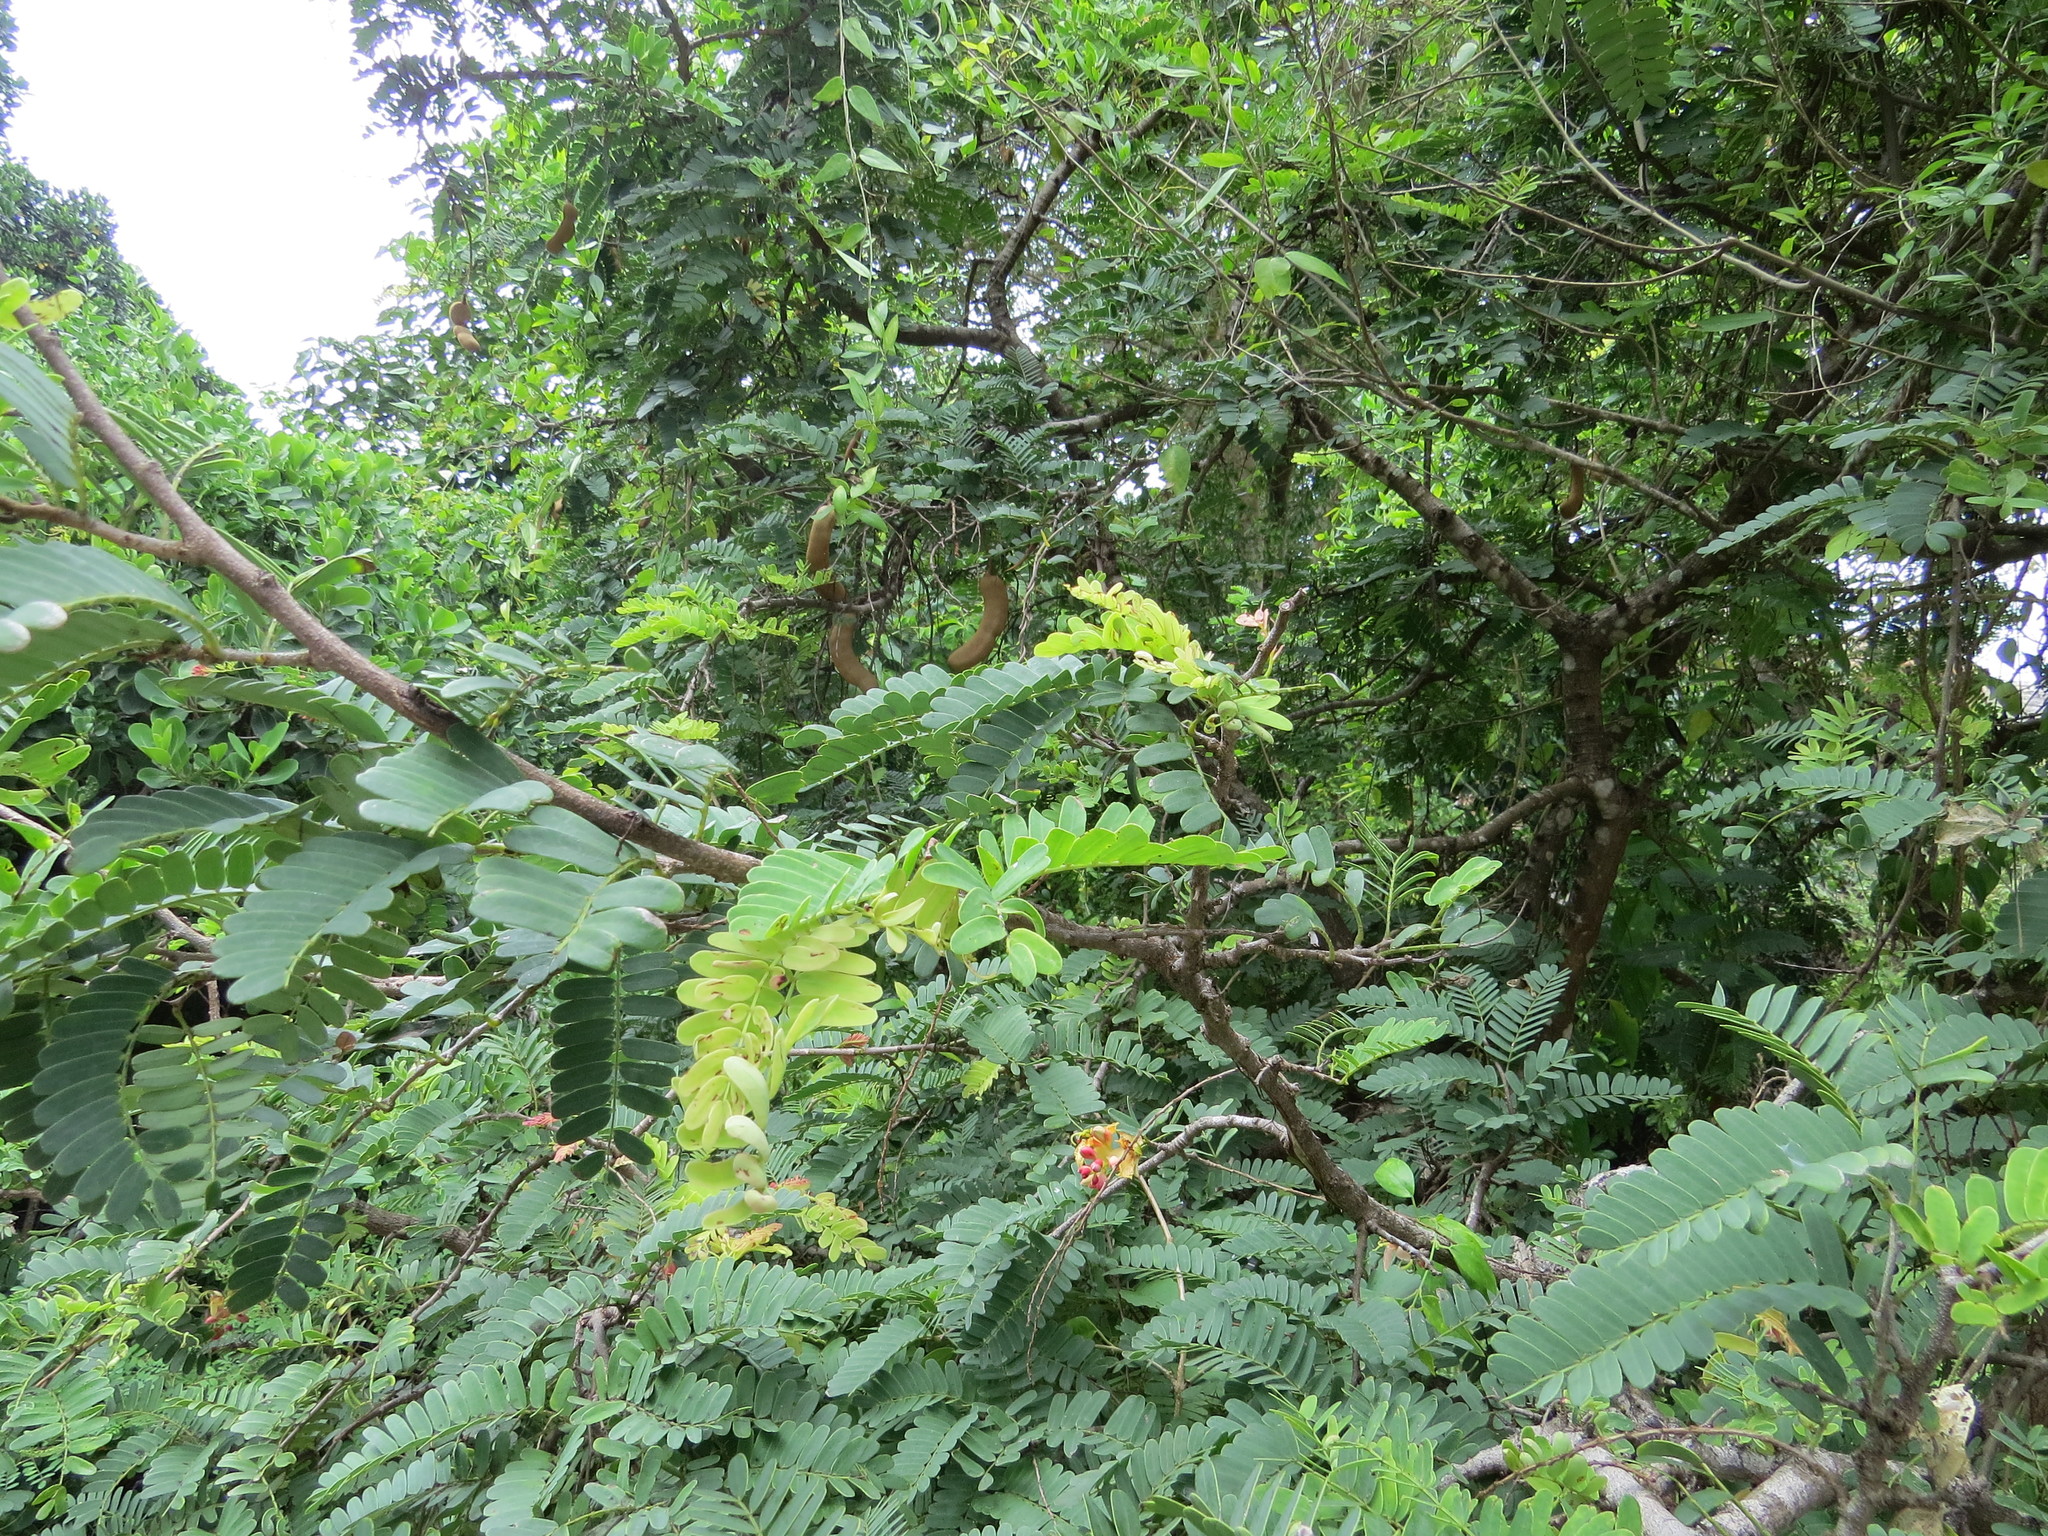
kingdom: Plantae
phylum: Tracheophyta
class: Magnoliopsida
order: Fabales
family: Fabaceae
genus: Tamarindus
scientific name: Tamarindus indica
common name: Tamarind
